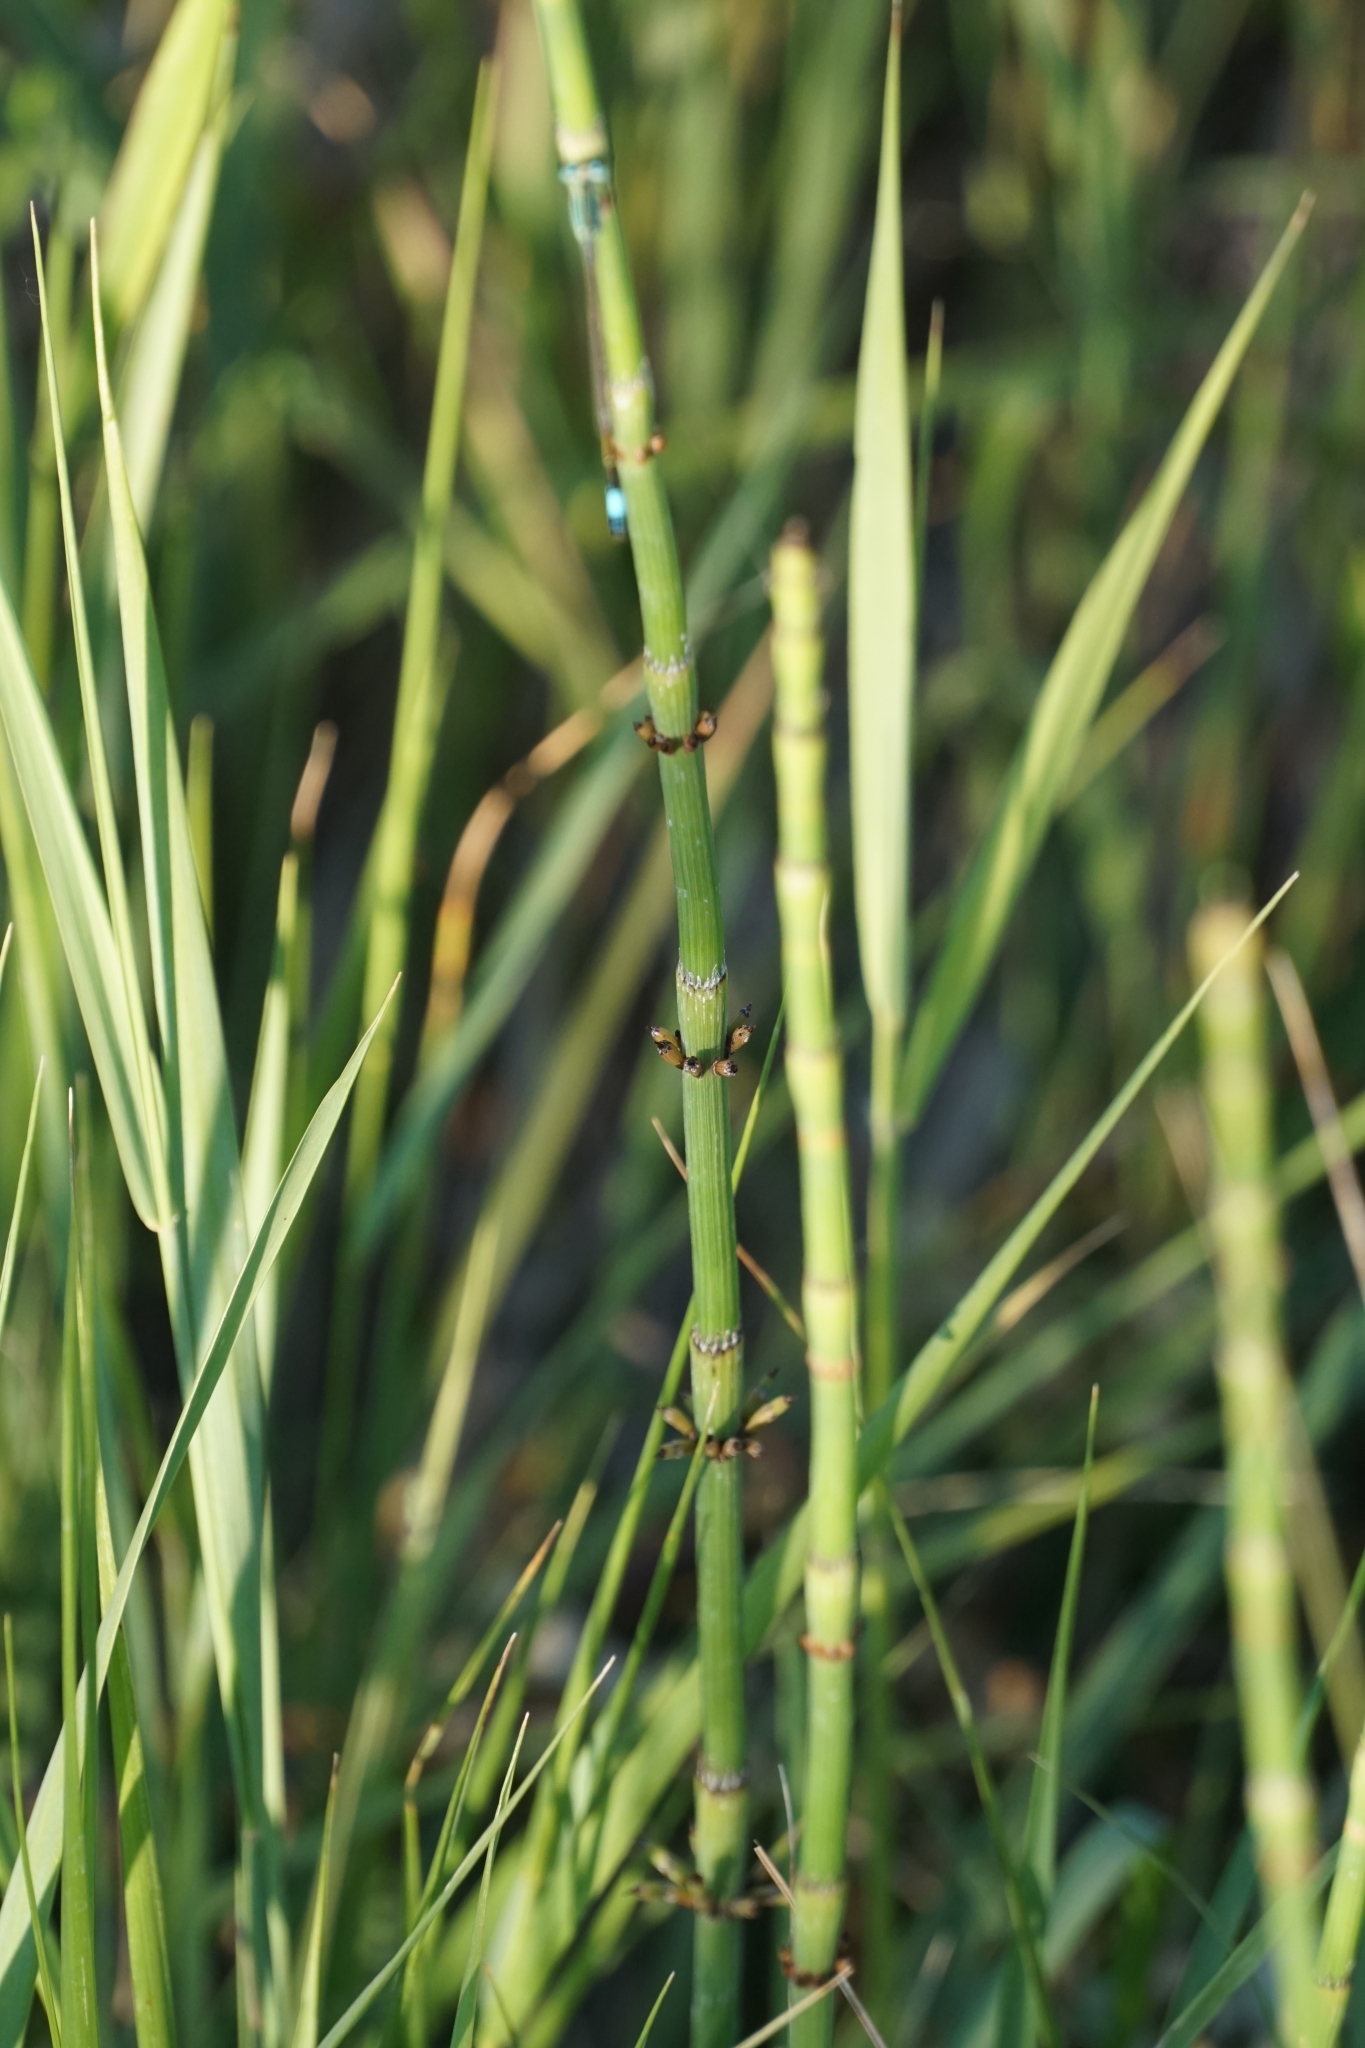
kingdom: Plantae
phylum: Tracheophyta
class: Polypodiopsida
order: Equisetales
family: Equisetaceae
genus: Equisetum
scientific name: Equisetum ramosissimum
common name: Branched horsetail
